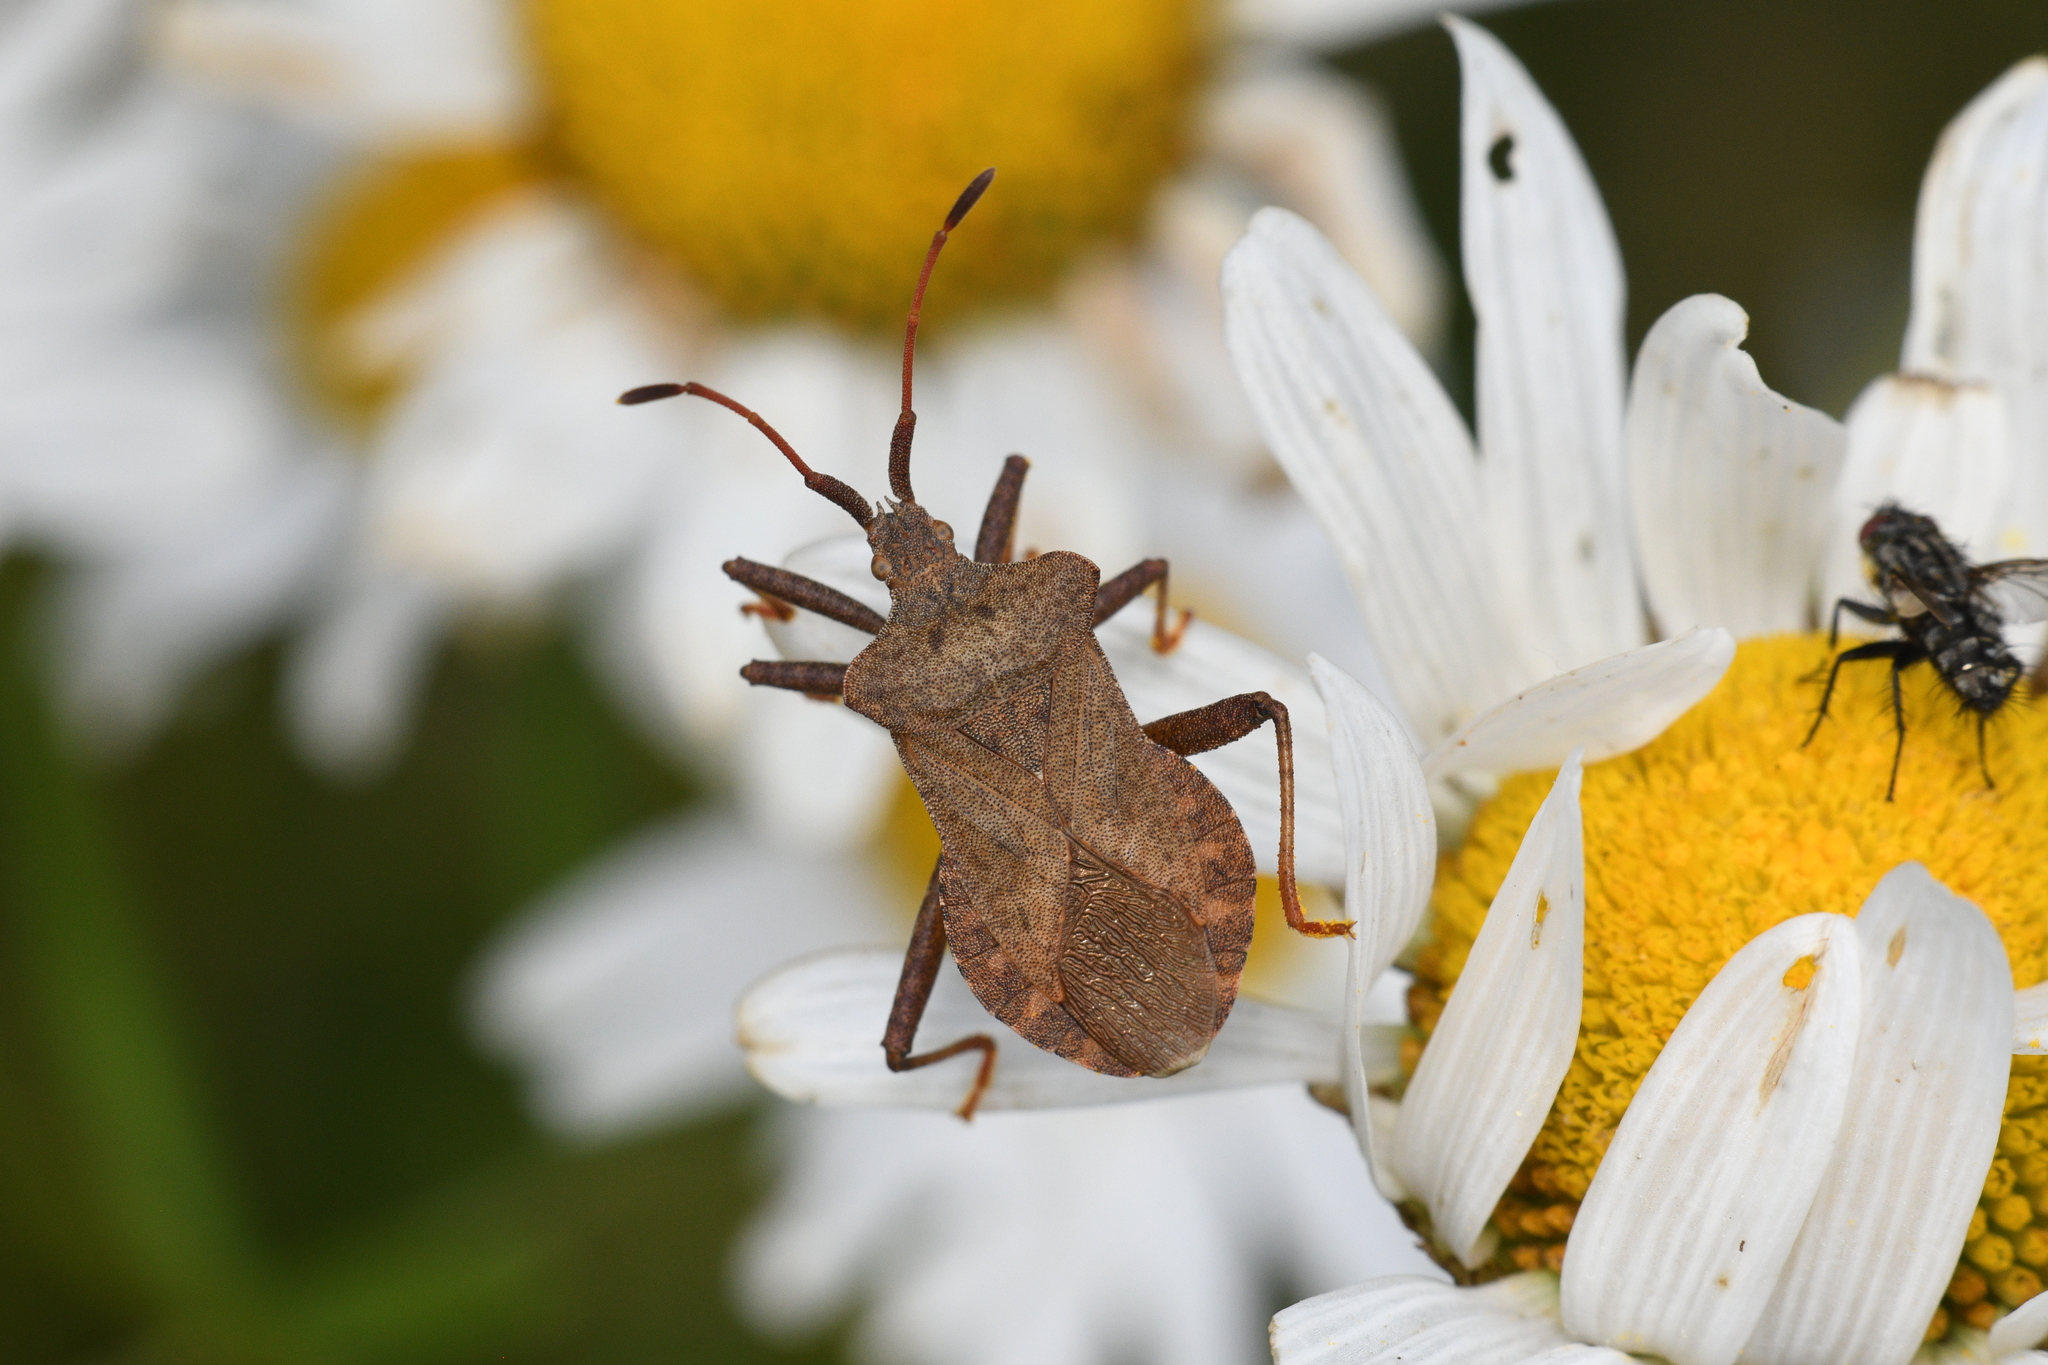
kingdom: Animalia
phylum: Arthropoda
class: Insecta
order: Hemiptera
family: Coreidae
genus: Coreus
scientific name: Coreus marginatus
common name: Dock bug
